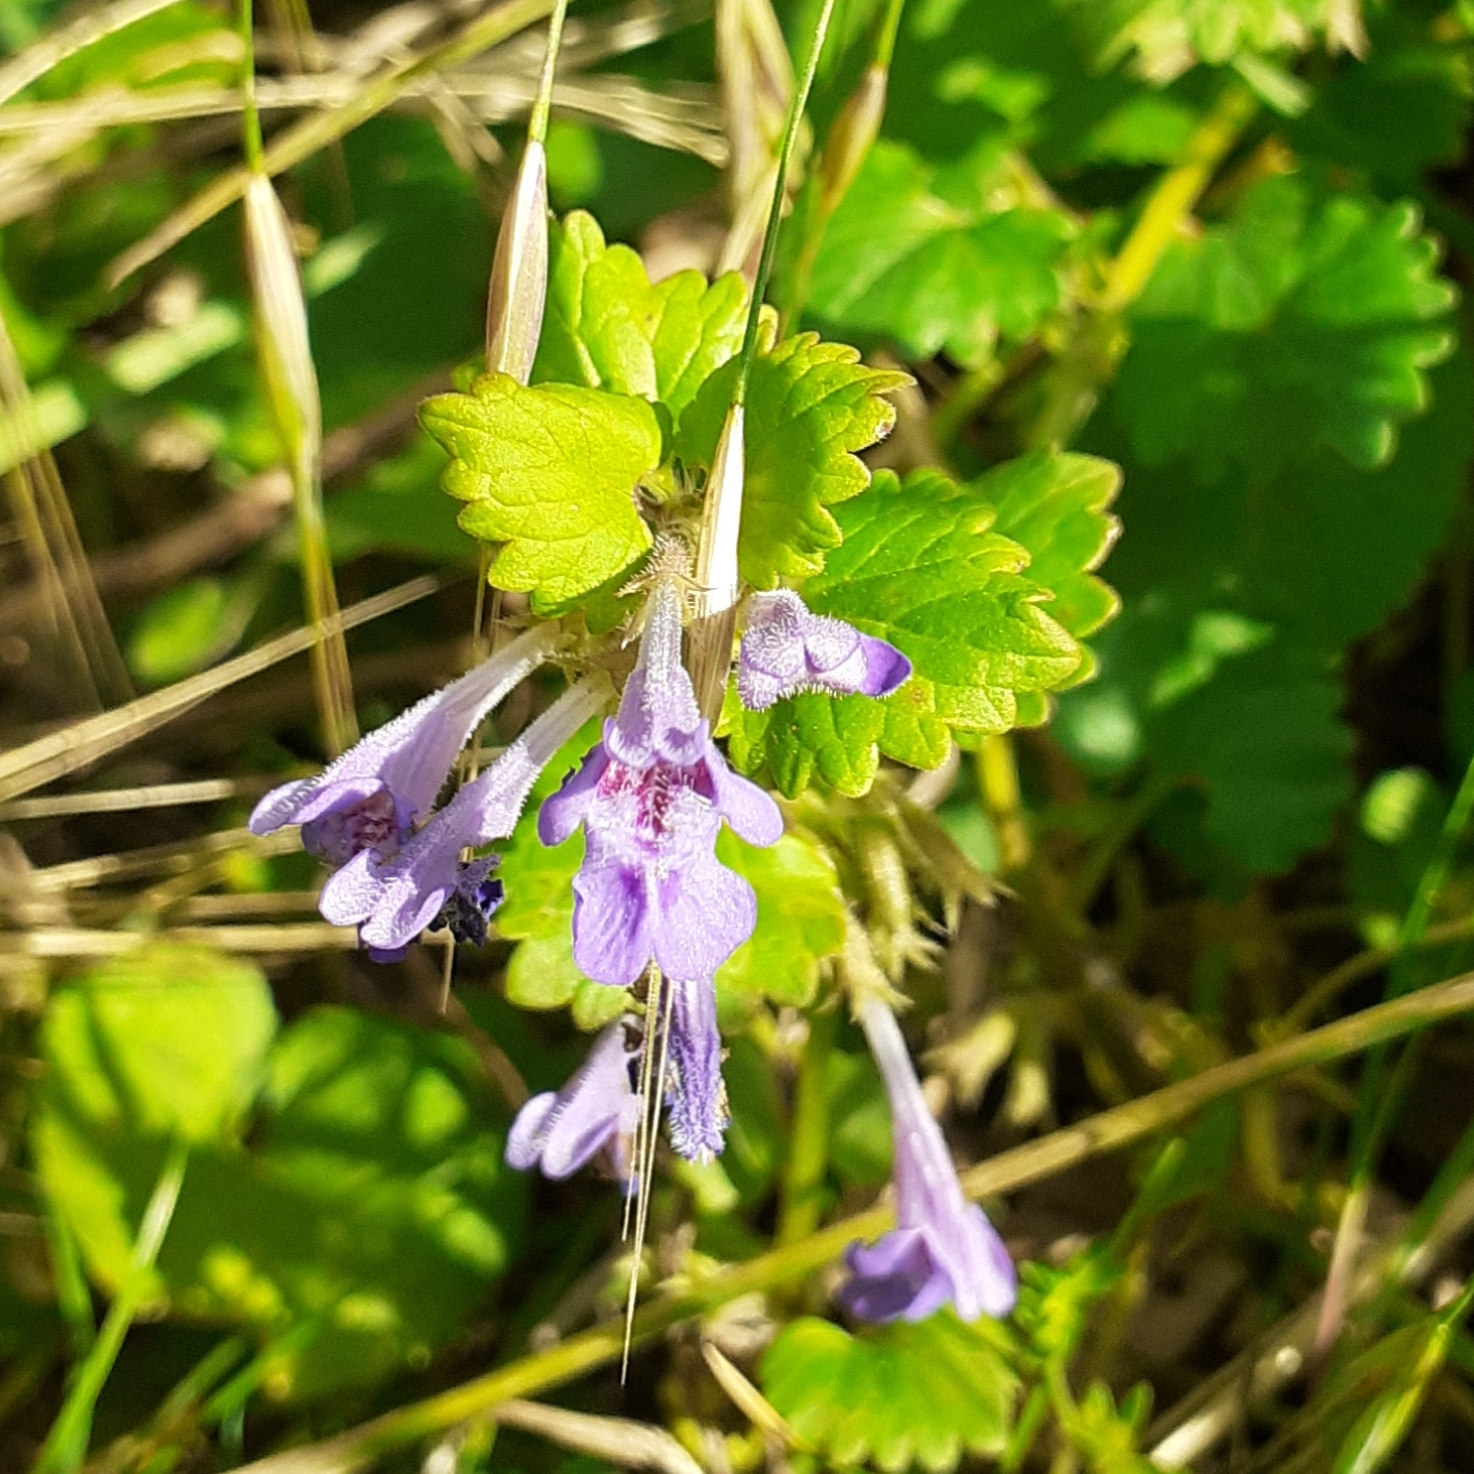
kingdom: Plantae
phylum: Tracheophyta
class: Magnoliopsida
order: Lamiales
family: Lamiaceae
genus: Glechoma
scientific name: Glechoma hederacea
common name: Ground ivy
